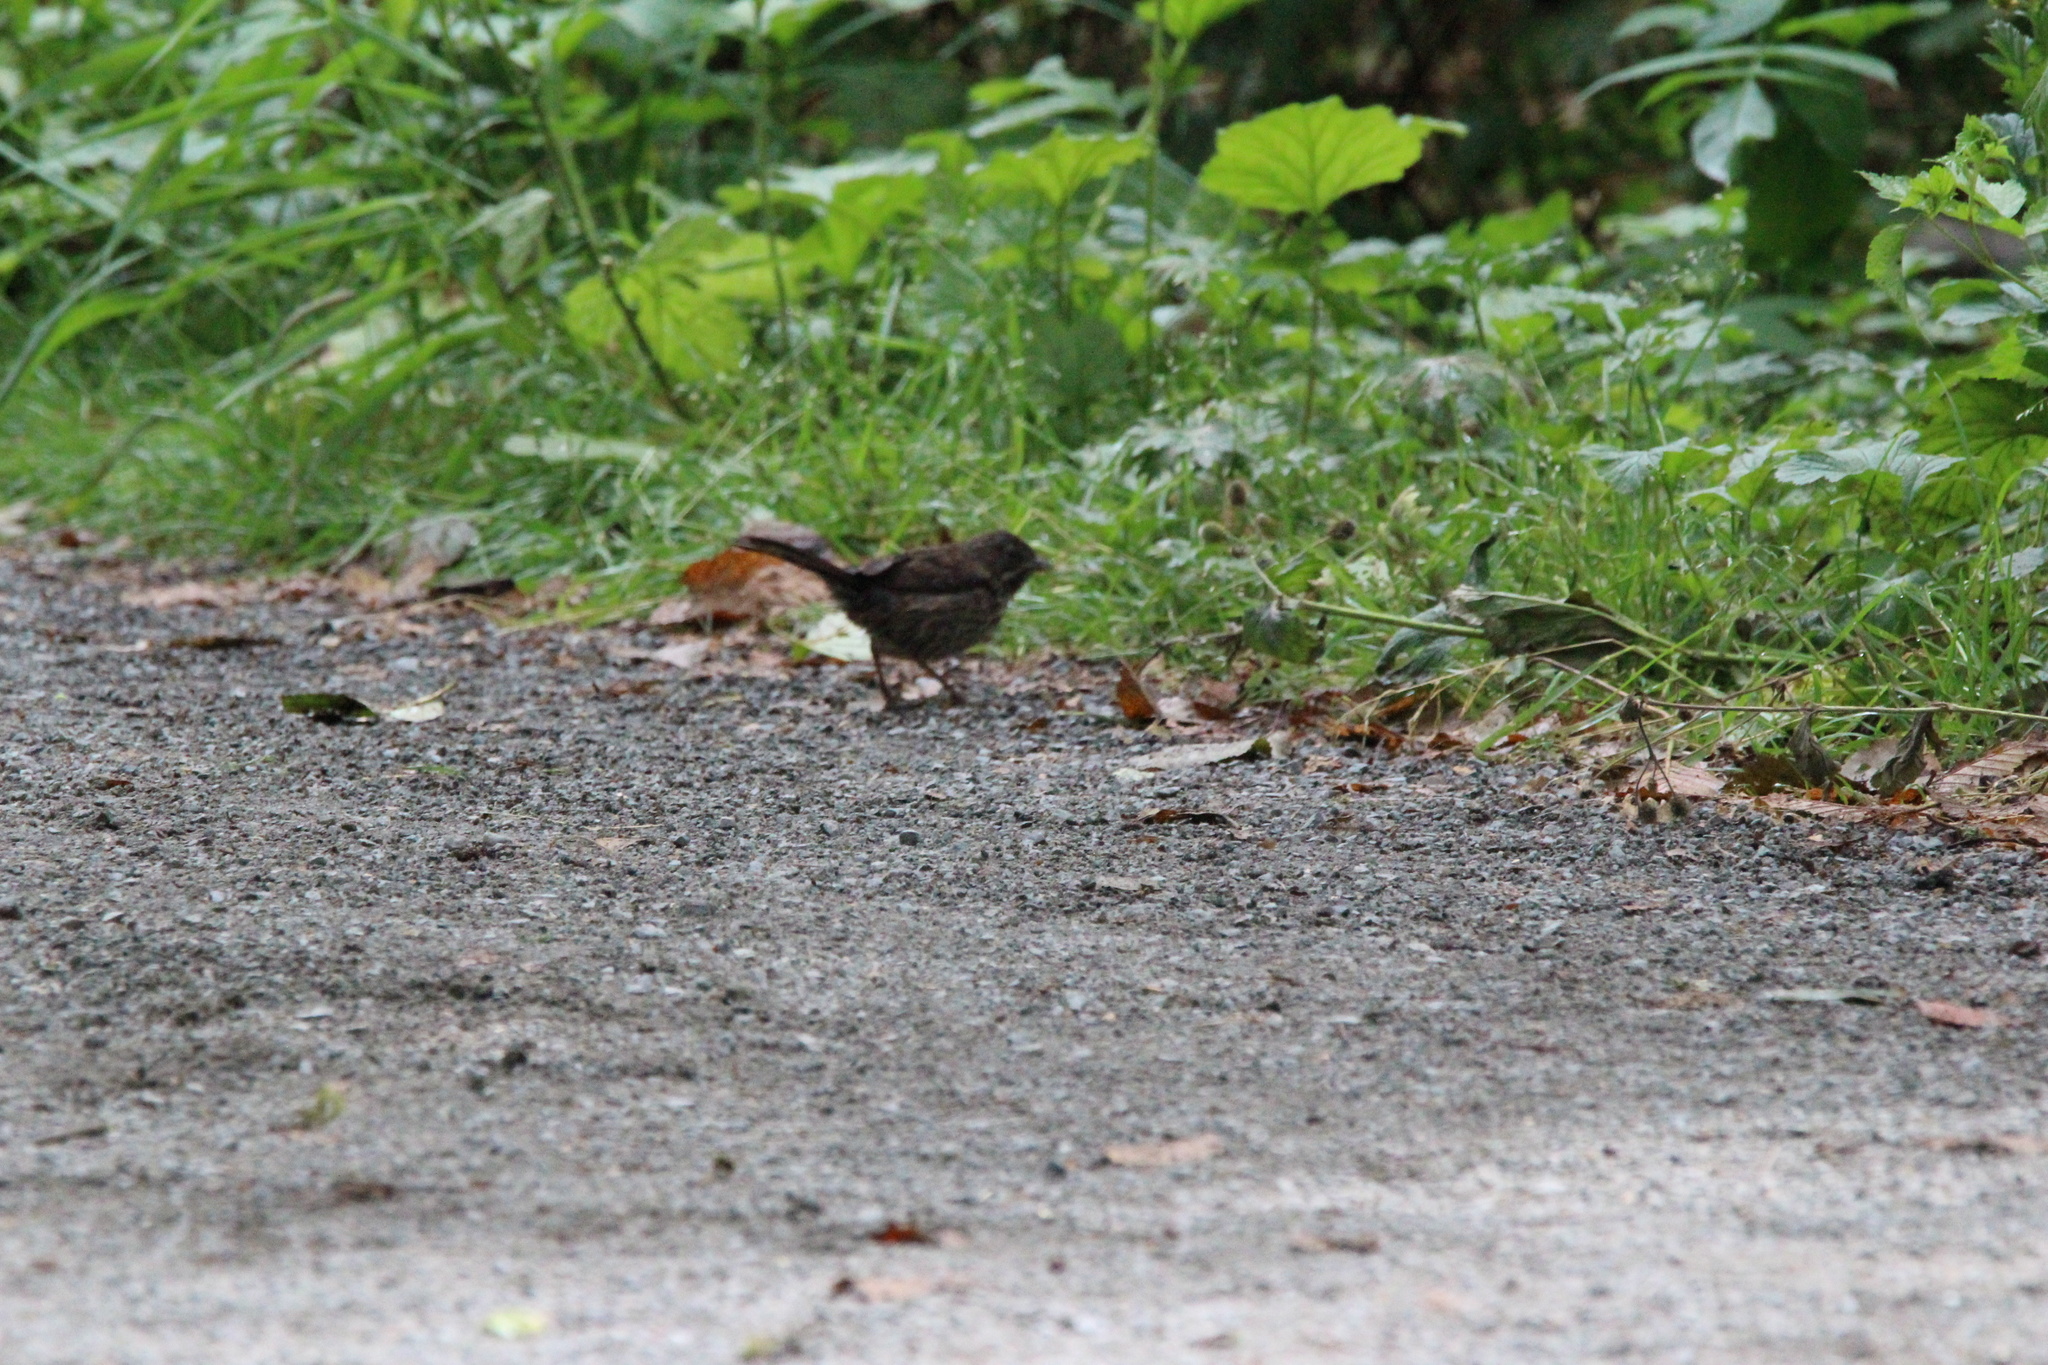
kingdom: Animalia
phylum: Chordata
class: Aves
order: Passeriformes
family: Passerellidae
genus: Melospiza
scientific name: Melospiza melodia
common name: Song sparrow
